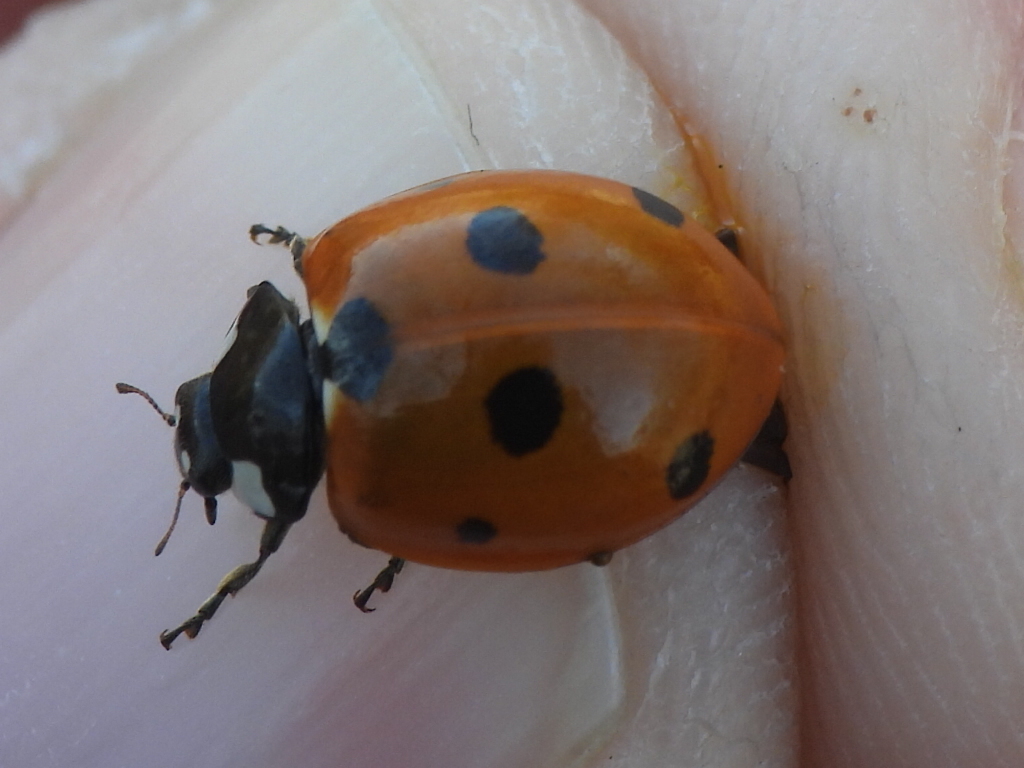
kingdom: Animalia
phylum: Arthropoda
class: Insecta
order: Coleoptera
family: Coccinellidae
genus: Coccinella
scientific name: Coccinella septempunctata
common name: Sevenspotted lady beetle
